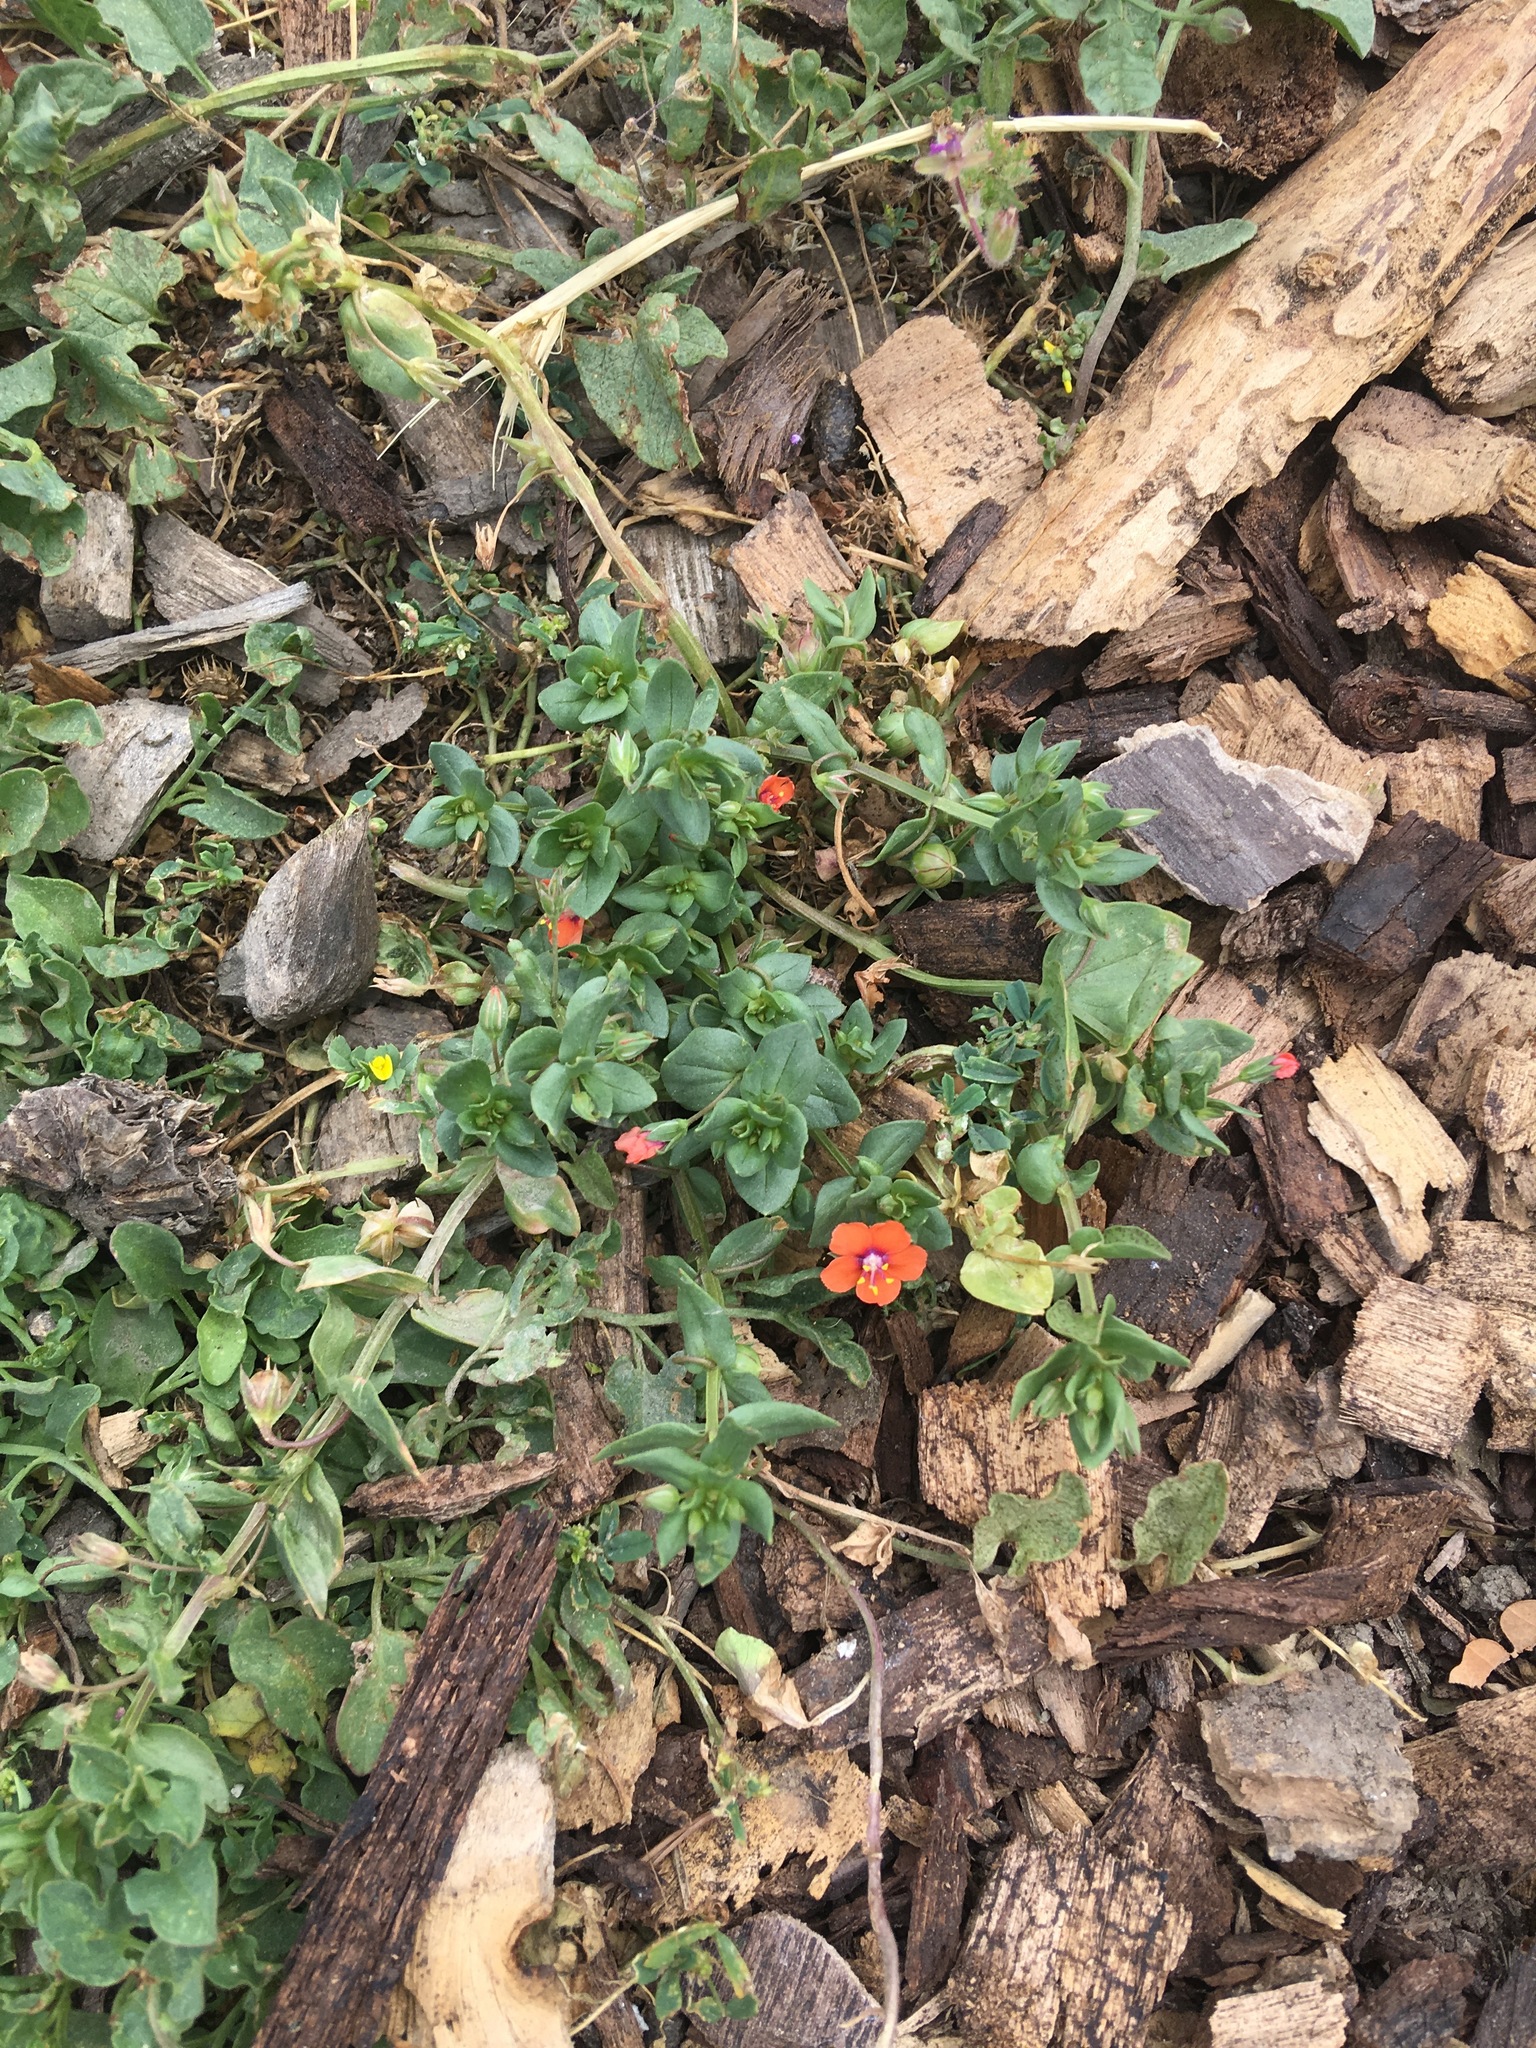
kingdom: Plantae
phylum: Tracheophyta
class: Magnoliopsida
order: Ericales
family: Primulaceae
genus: Lysimachia
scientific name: Lysimachia arvensis
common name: Scarlet pimpernel
